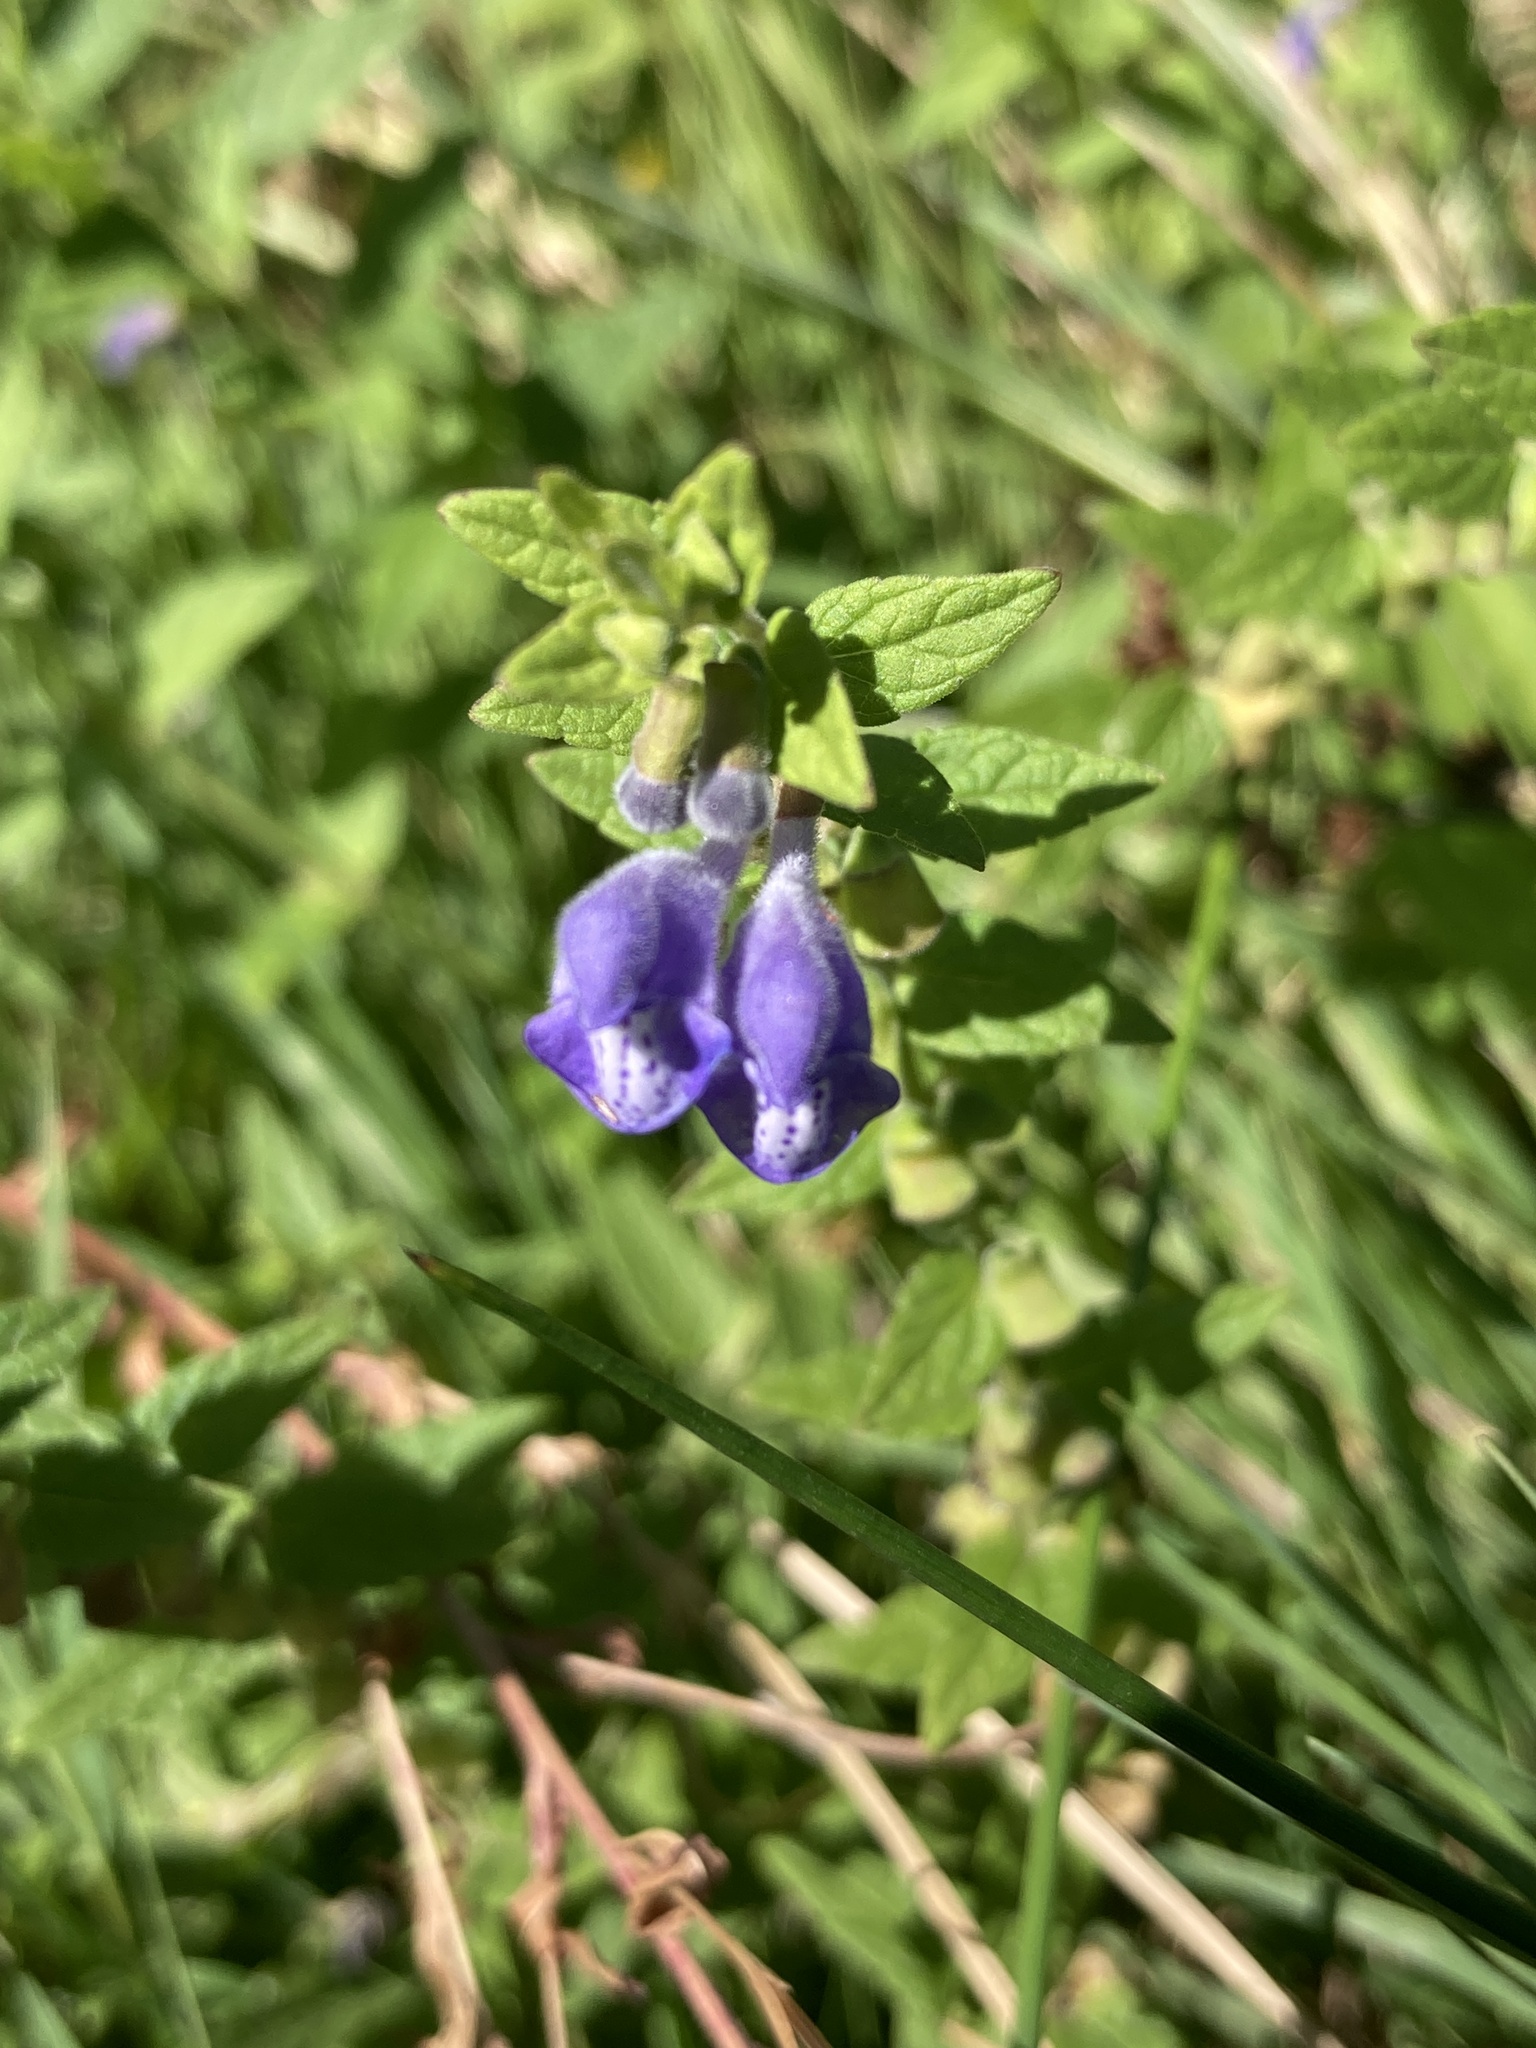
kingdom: Plantae
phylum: Tracheophyta
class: Magnoliopsida
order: Lamiales
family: Lamiaceae
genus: Scutellaria
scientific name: Scutellaria galericulata
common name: Skullcap
